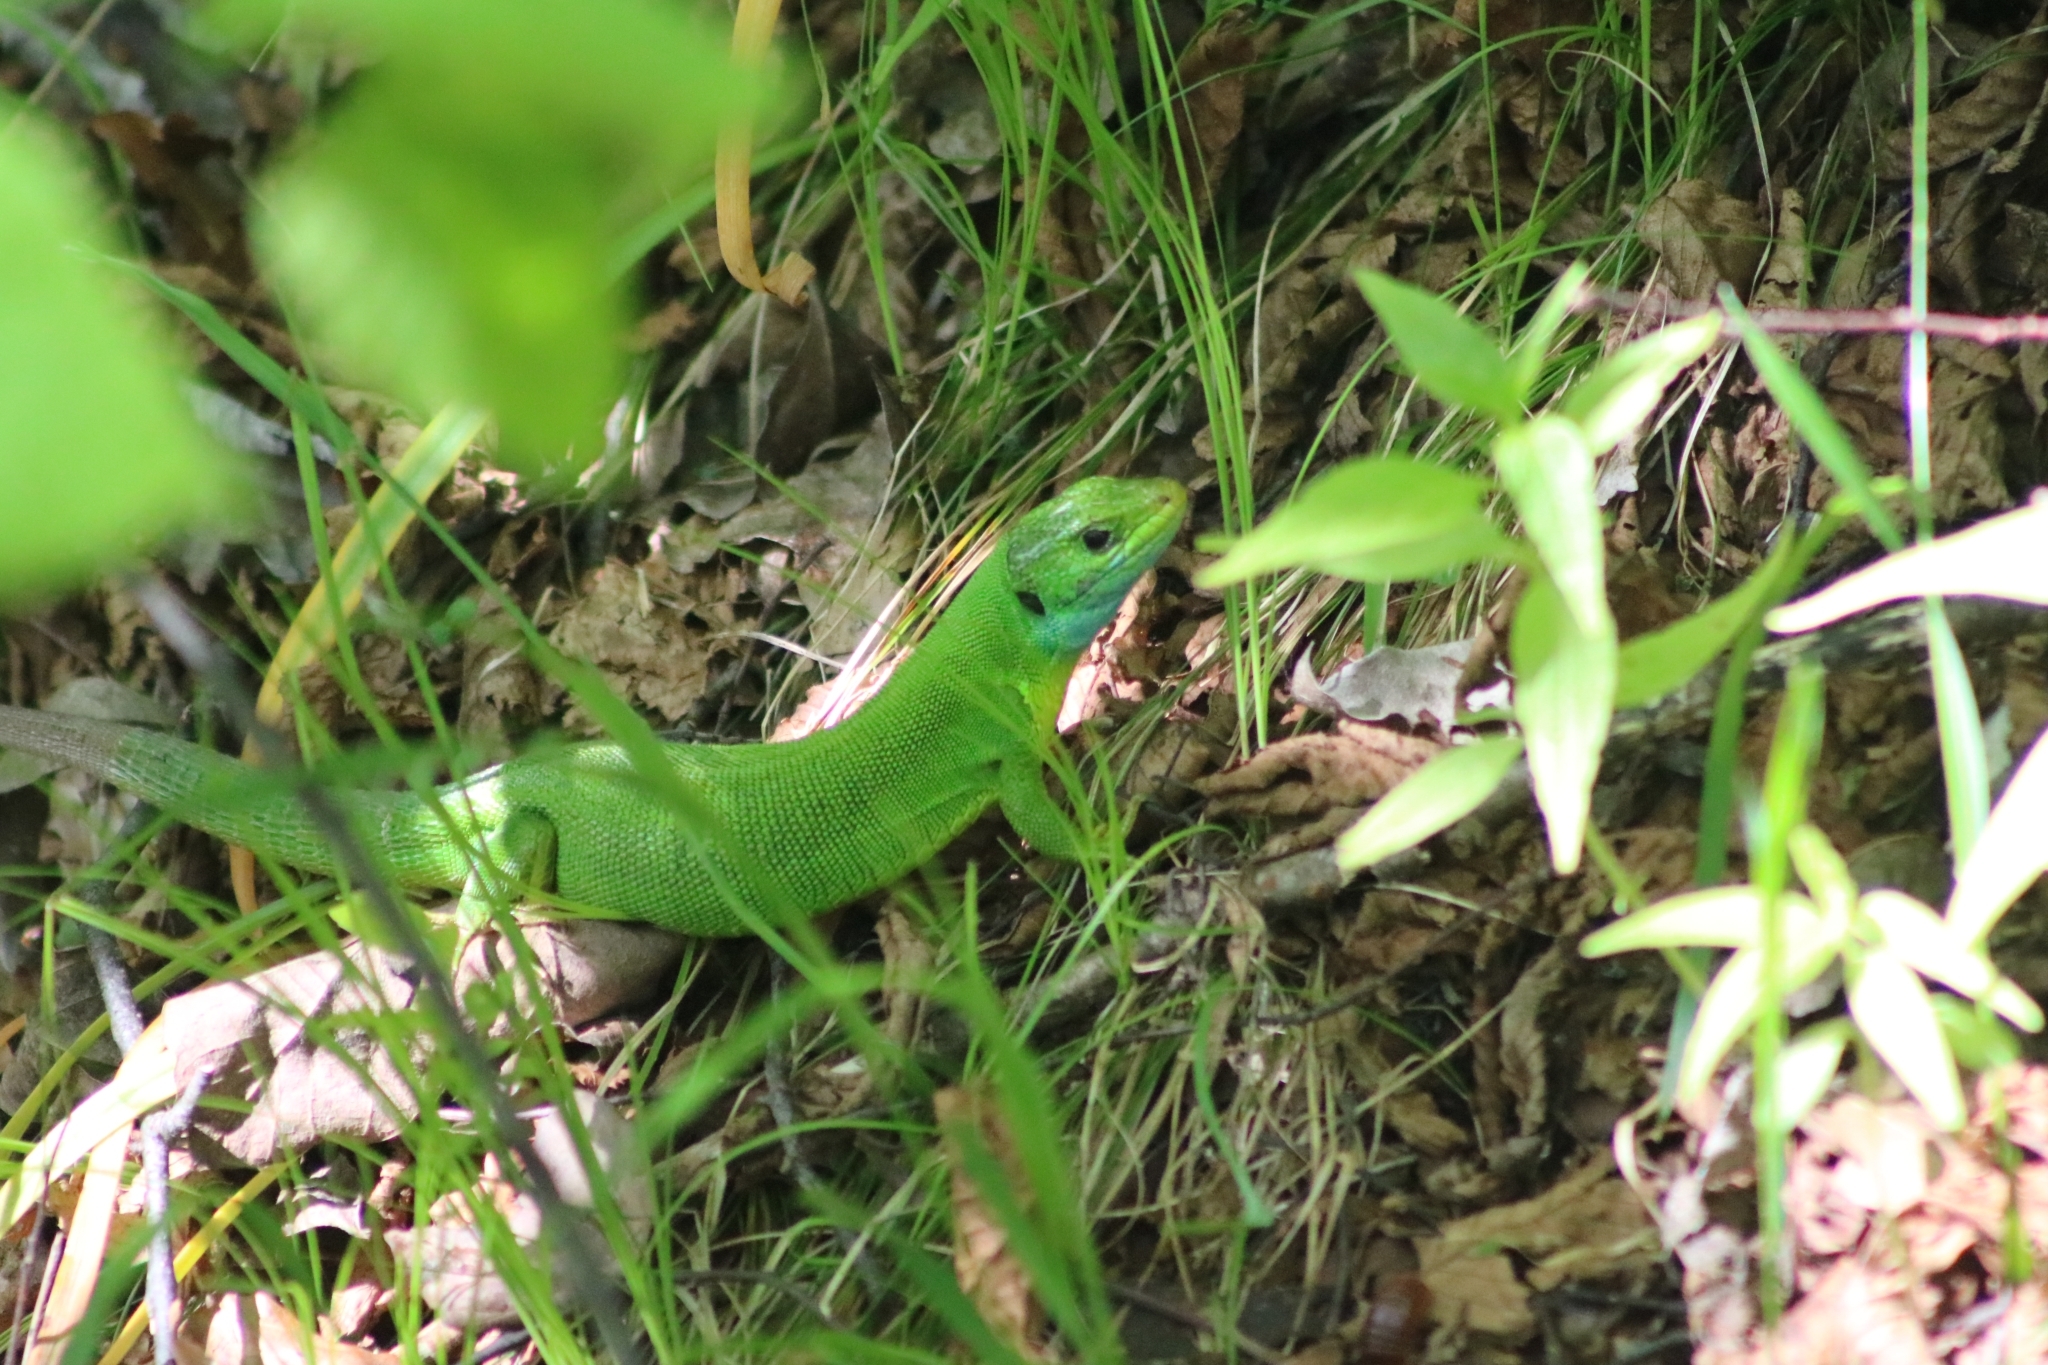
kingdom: Animalia
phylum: Chordata
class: Squamata
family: Lacertidae
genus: Lacerta
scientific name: Lacerta viridis
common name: European green lizard
